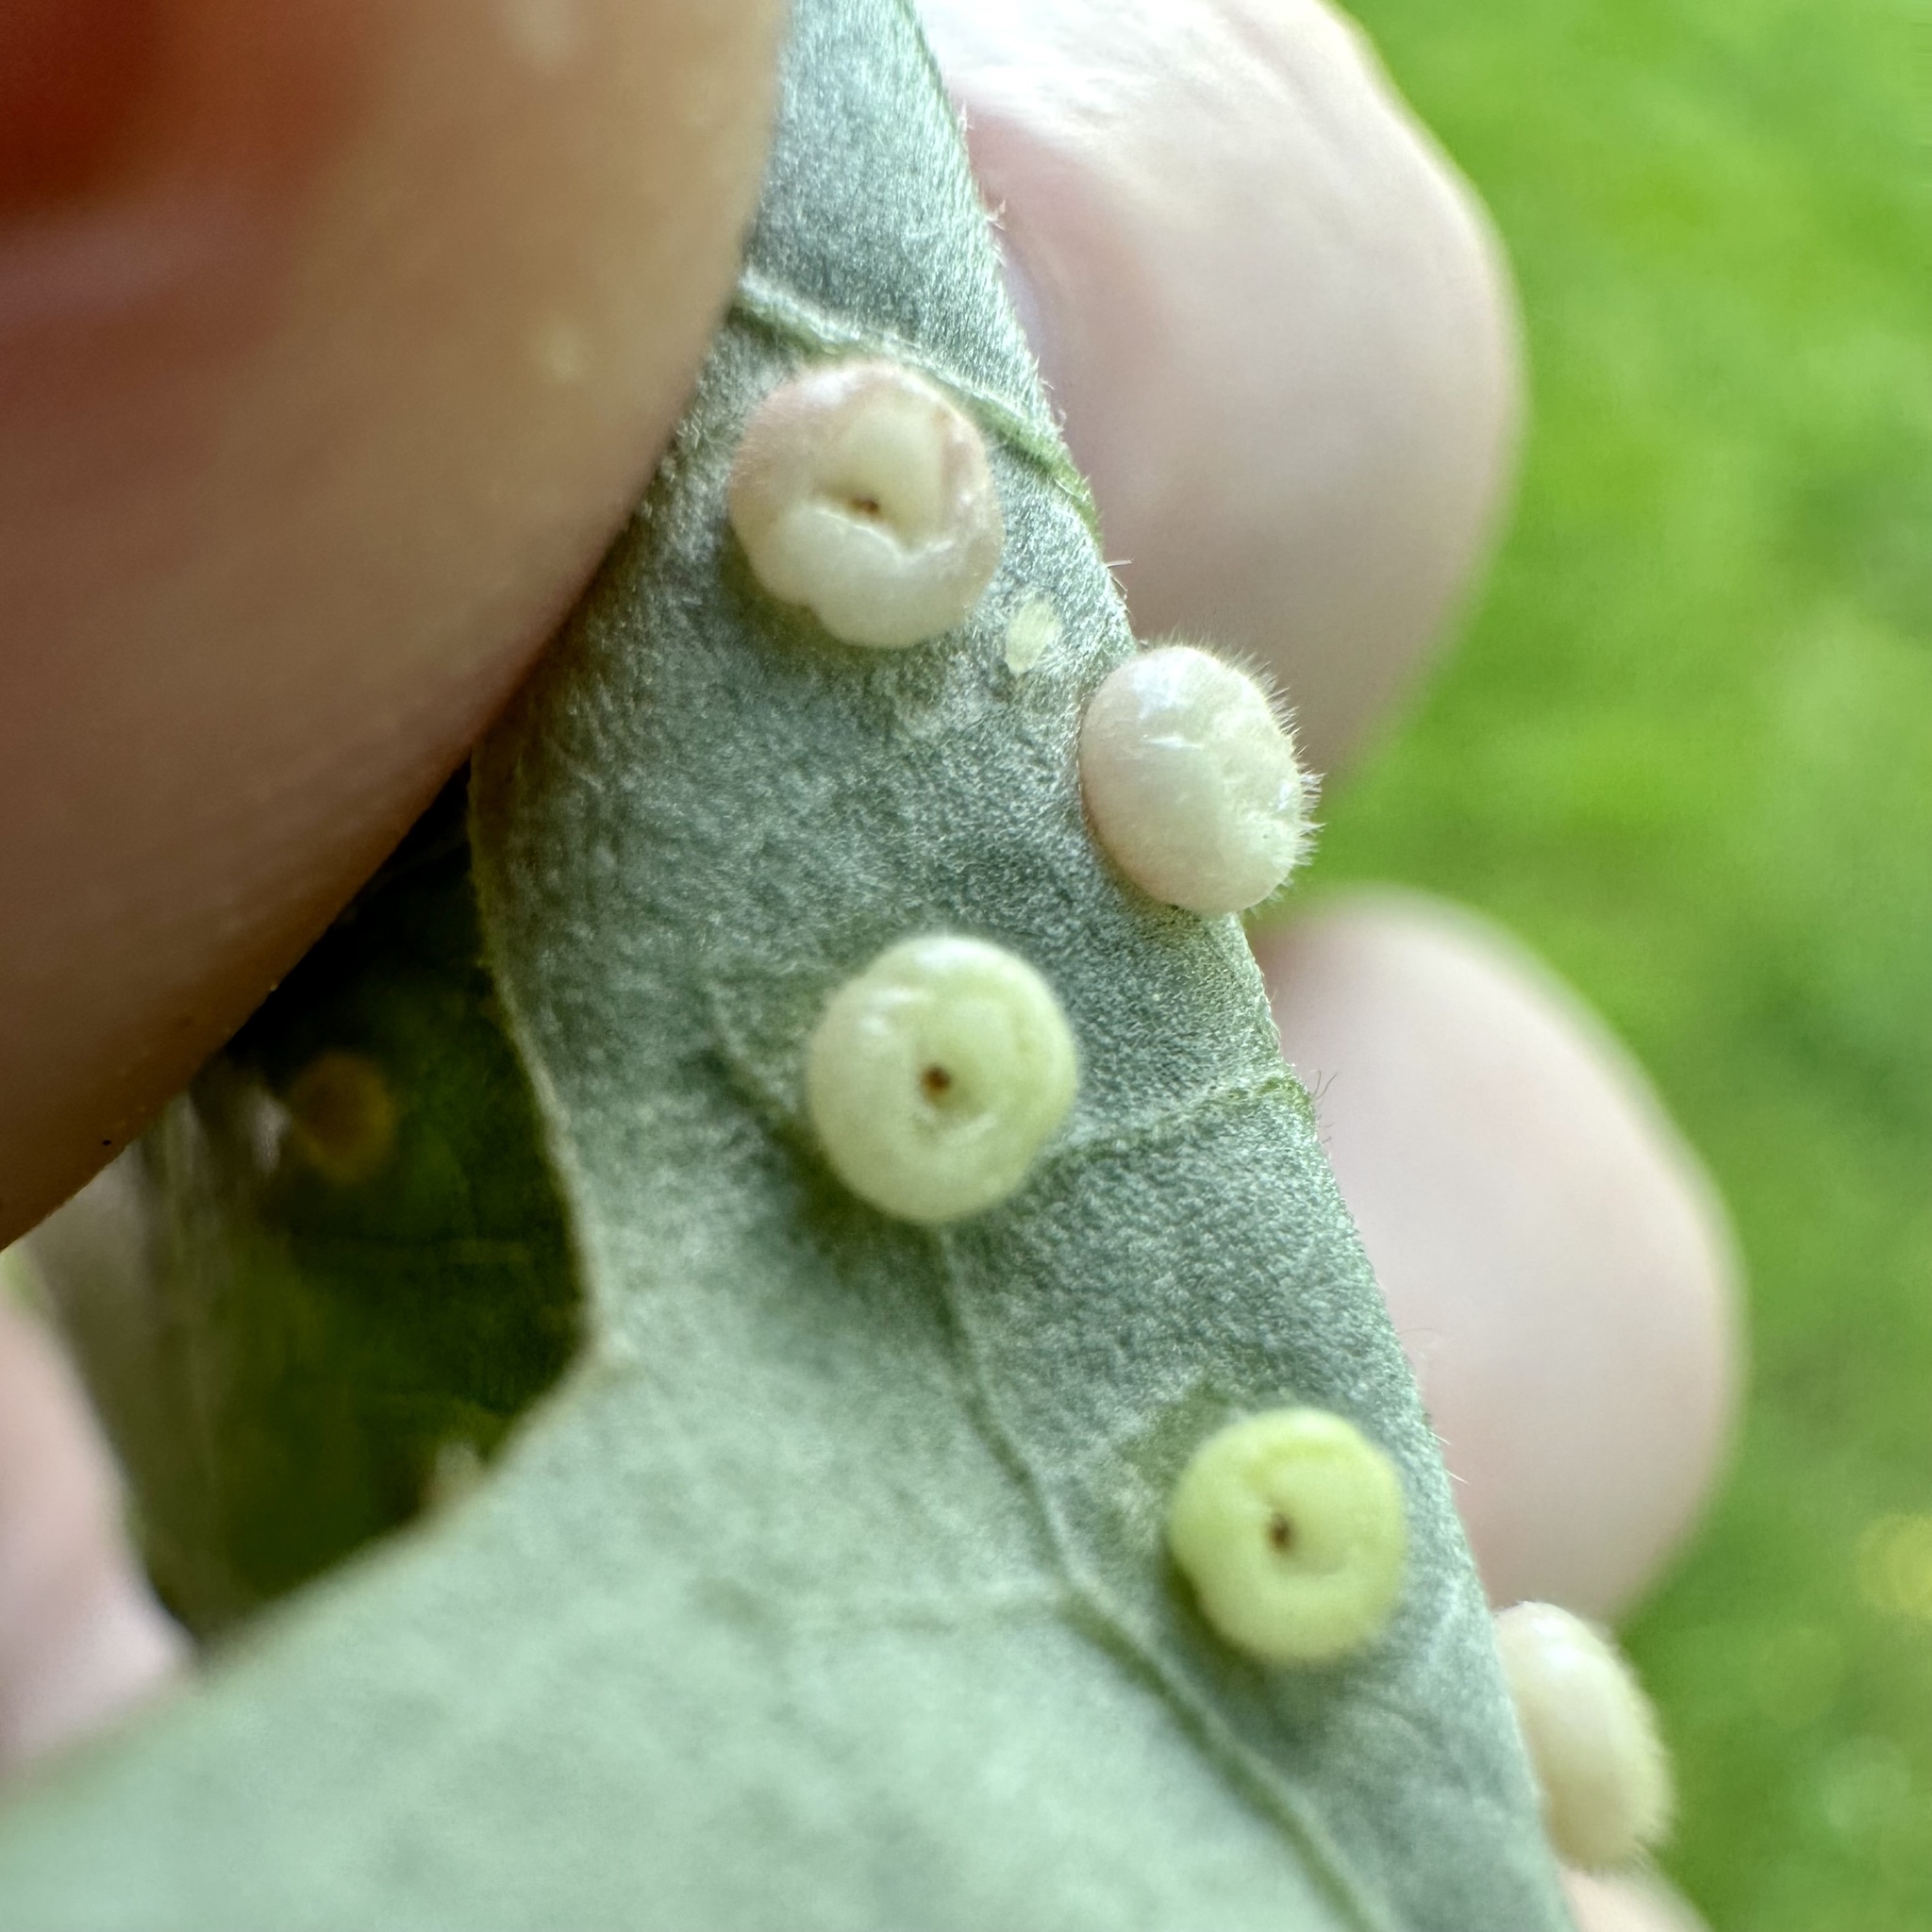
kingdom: Animalia
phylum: Arthropoda
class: Insecta
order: Hymenoptera
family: Cynipidae
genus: Neuroterus
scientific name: Neuroterus
